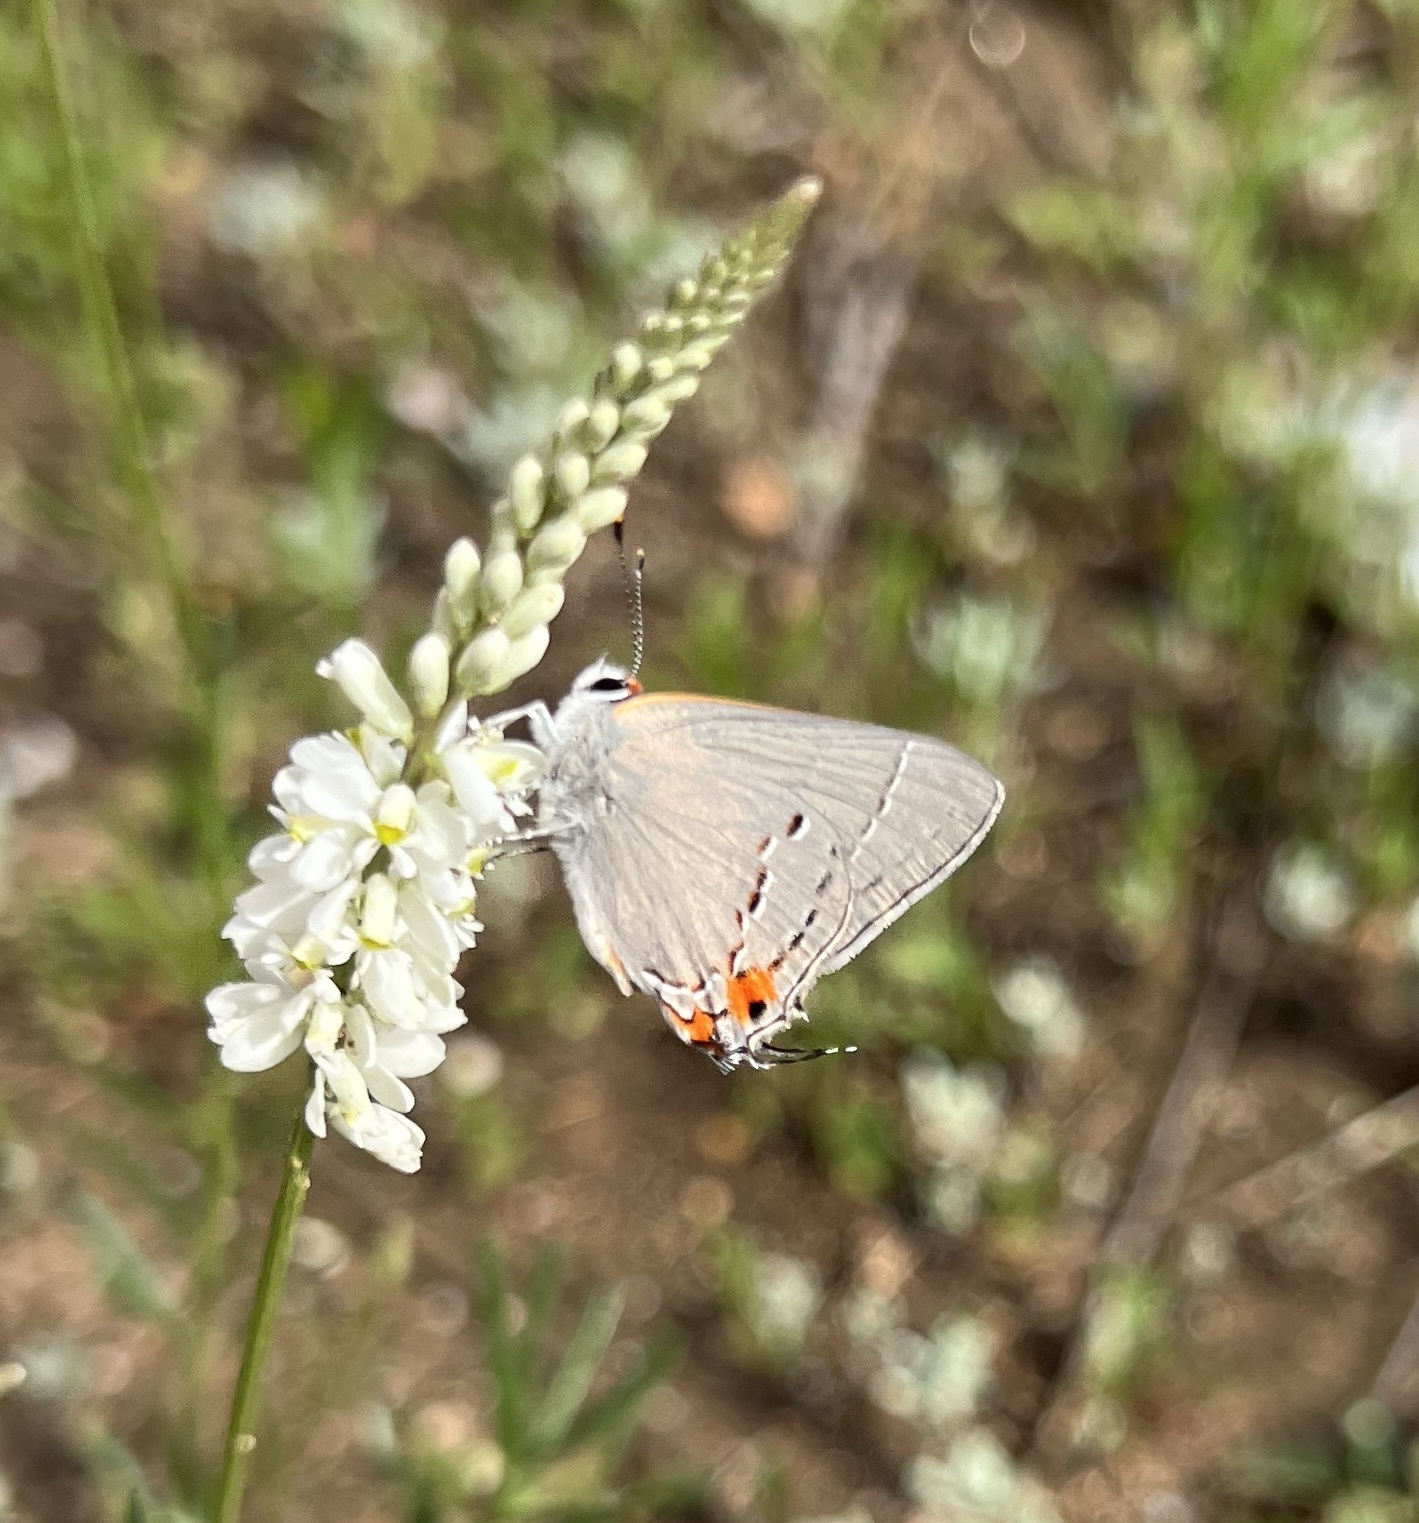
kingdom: Animalia
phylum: Arthropoda
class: Insecta
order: Lepidoptera
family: Lycaenidae
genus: Strymon
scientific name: Strymon melinus
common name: Gray hairstreak
